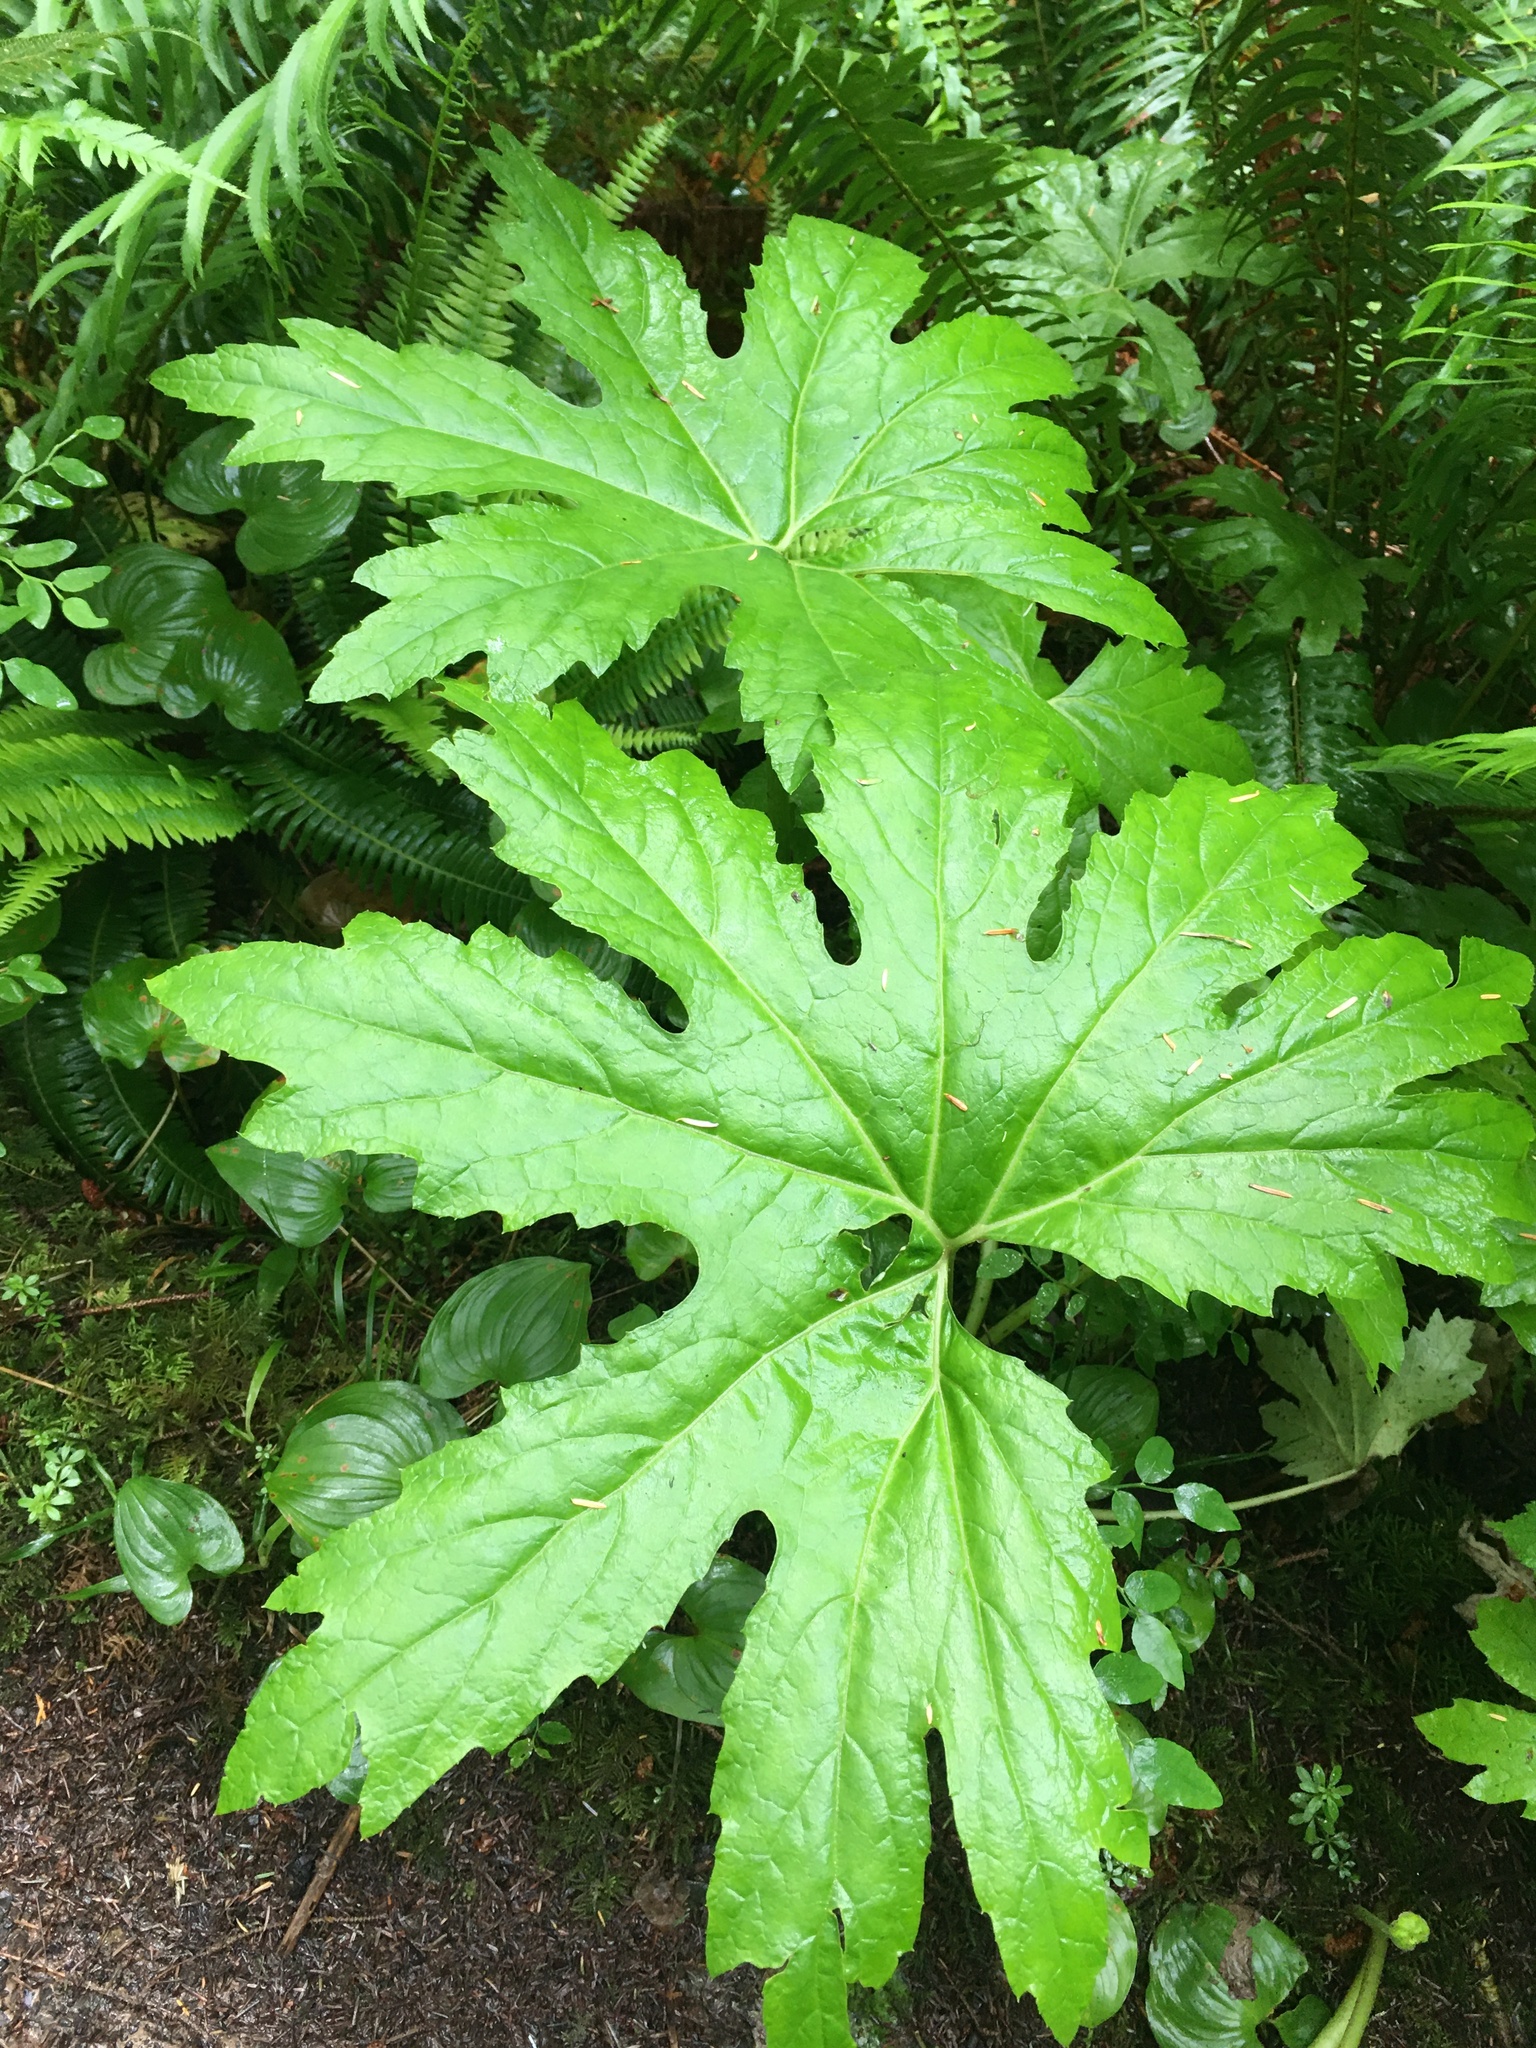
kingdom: Plantae
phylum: Tracheophyta
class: Magnoliopsida
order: Asterales
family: Asteraceae
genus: Petasites
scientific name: Petasites frigidus
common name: Arctic butterbur
